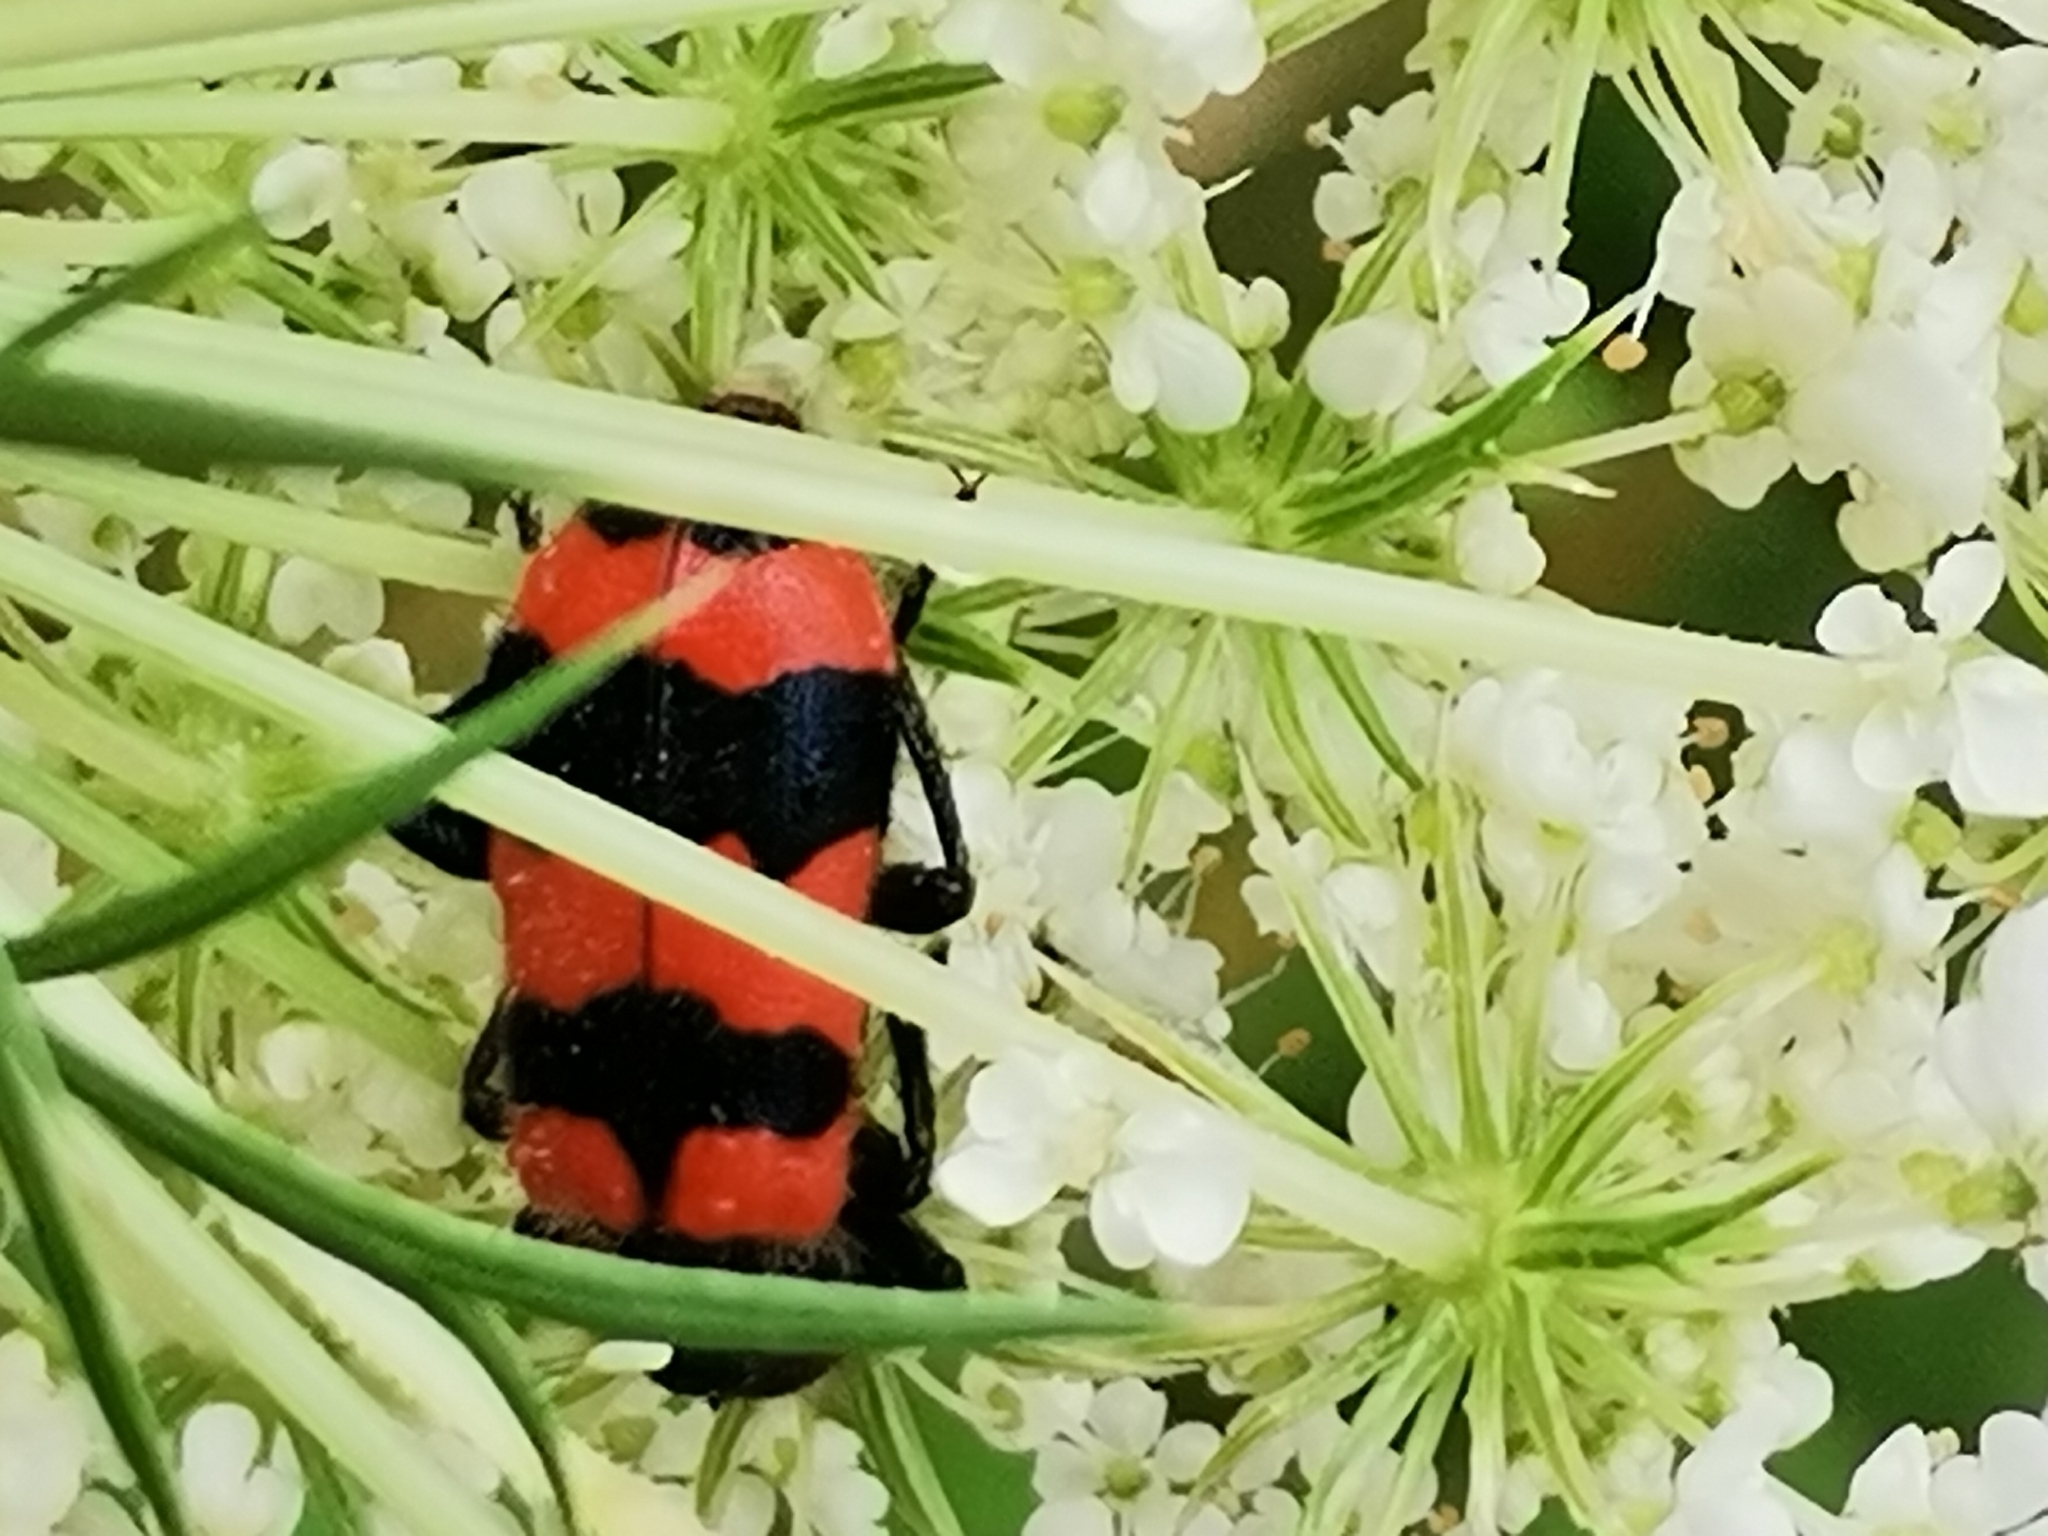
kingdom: Animalia
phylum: Arthropoda
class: Insecta
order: Coleoptera
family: Cleridae
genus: Trichodes
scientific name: Trichodes apiarius
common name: Bee-eating beetle
